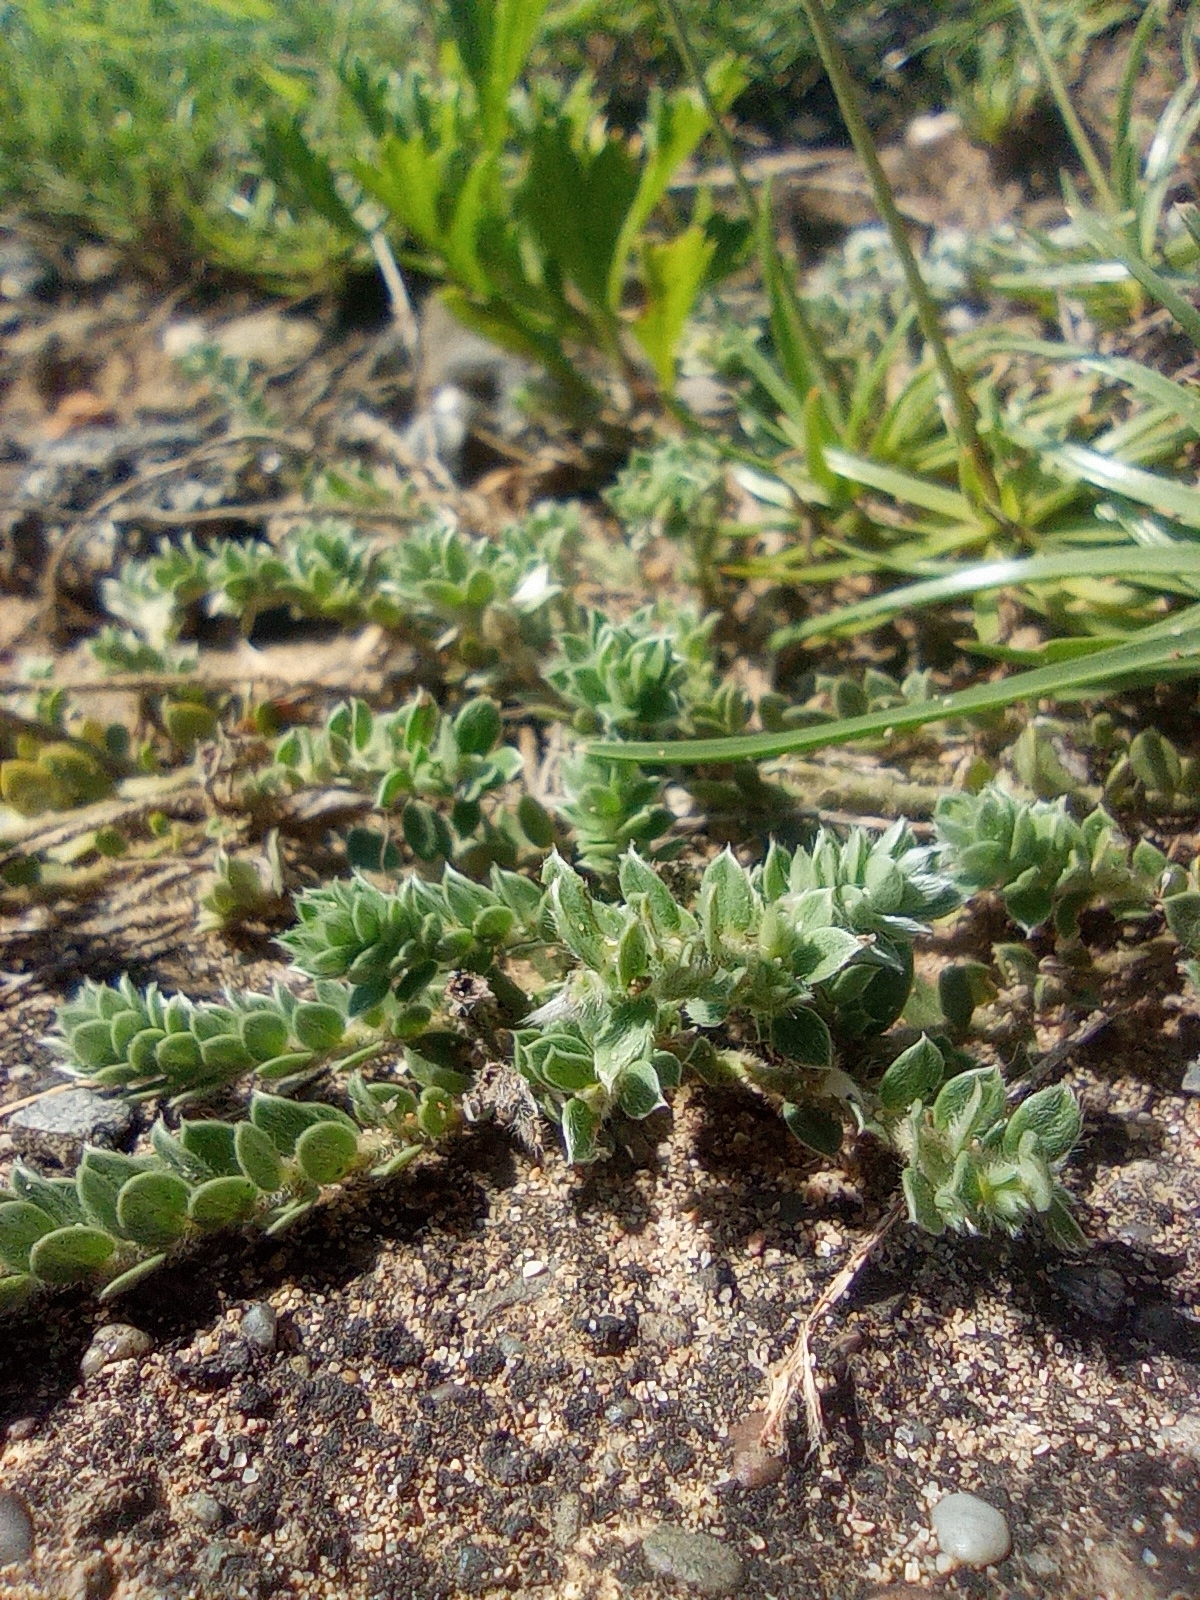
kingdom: Plantae
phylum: Tracheophyta
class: Magnoliopsida
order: Fabales
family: Fabaceae
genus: Crotalaria
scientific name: Crotalaria similis
